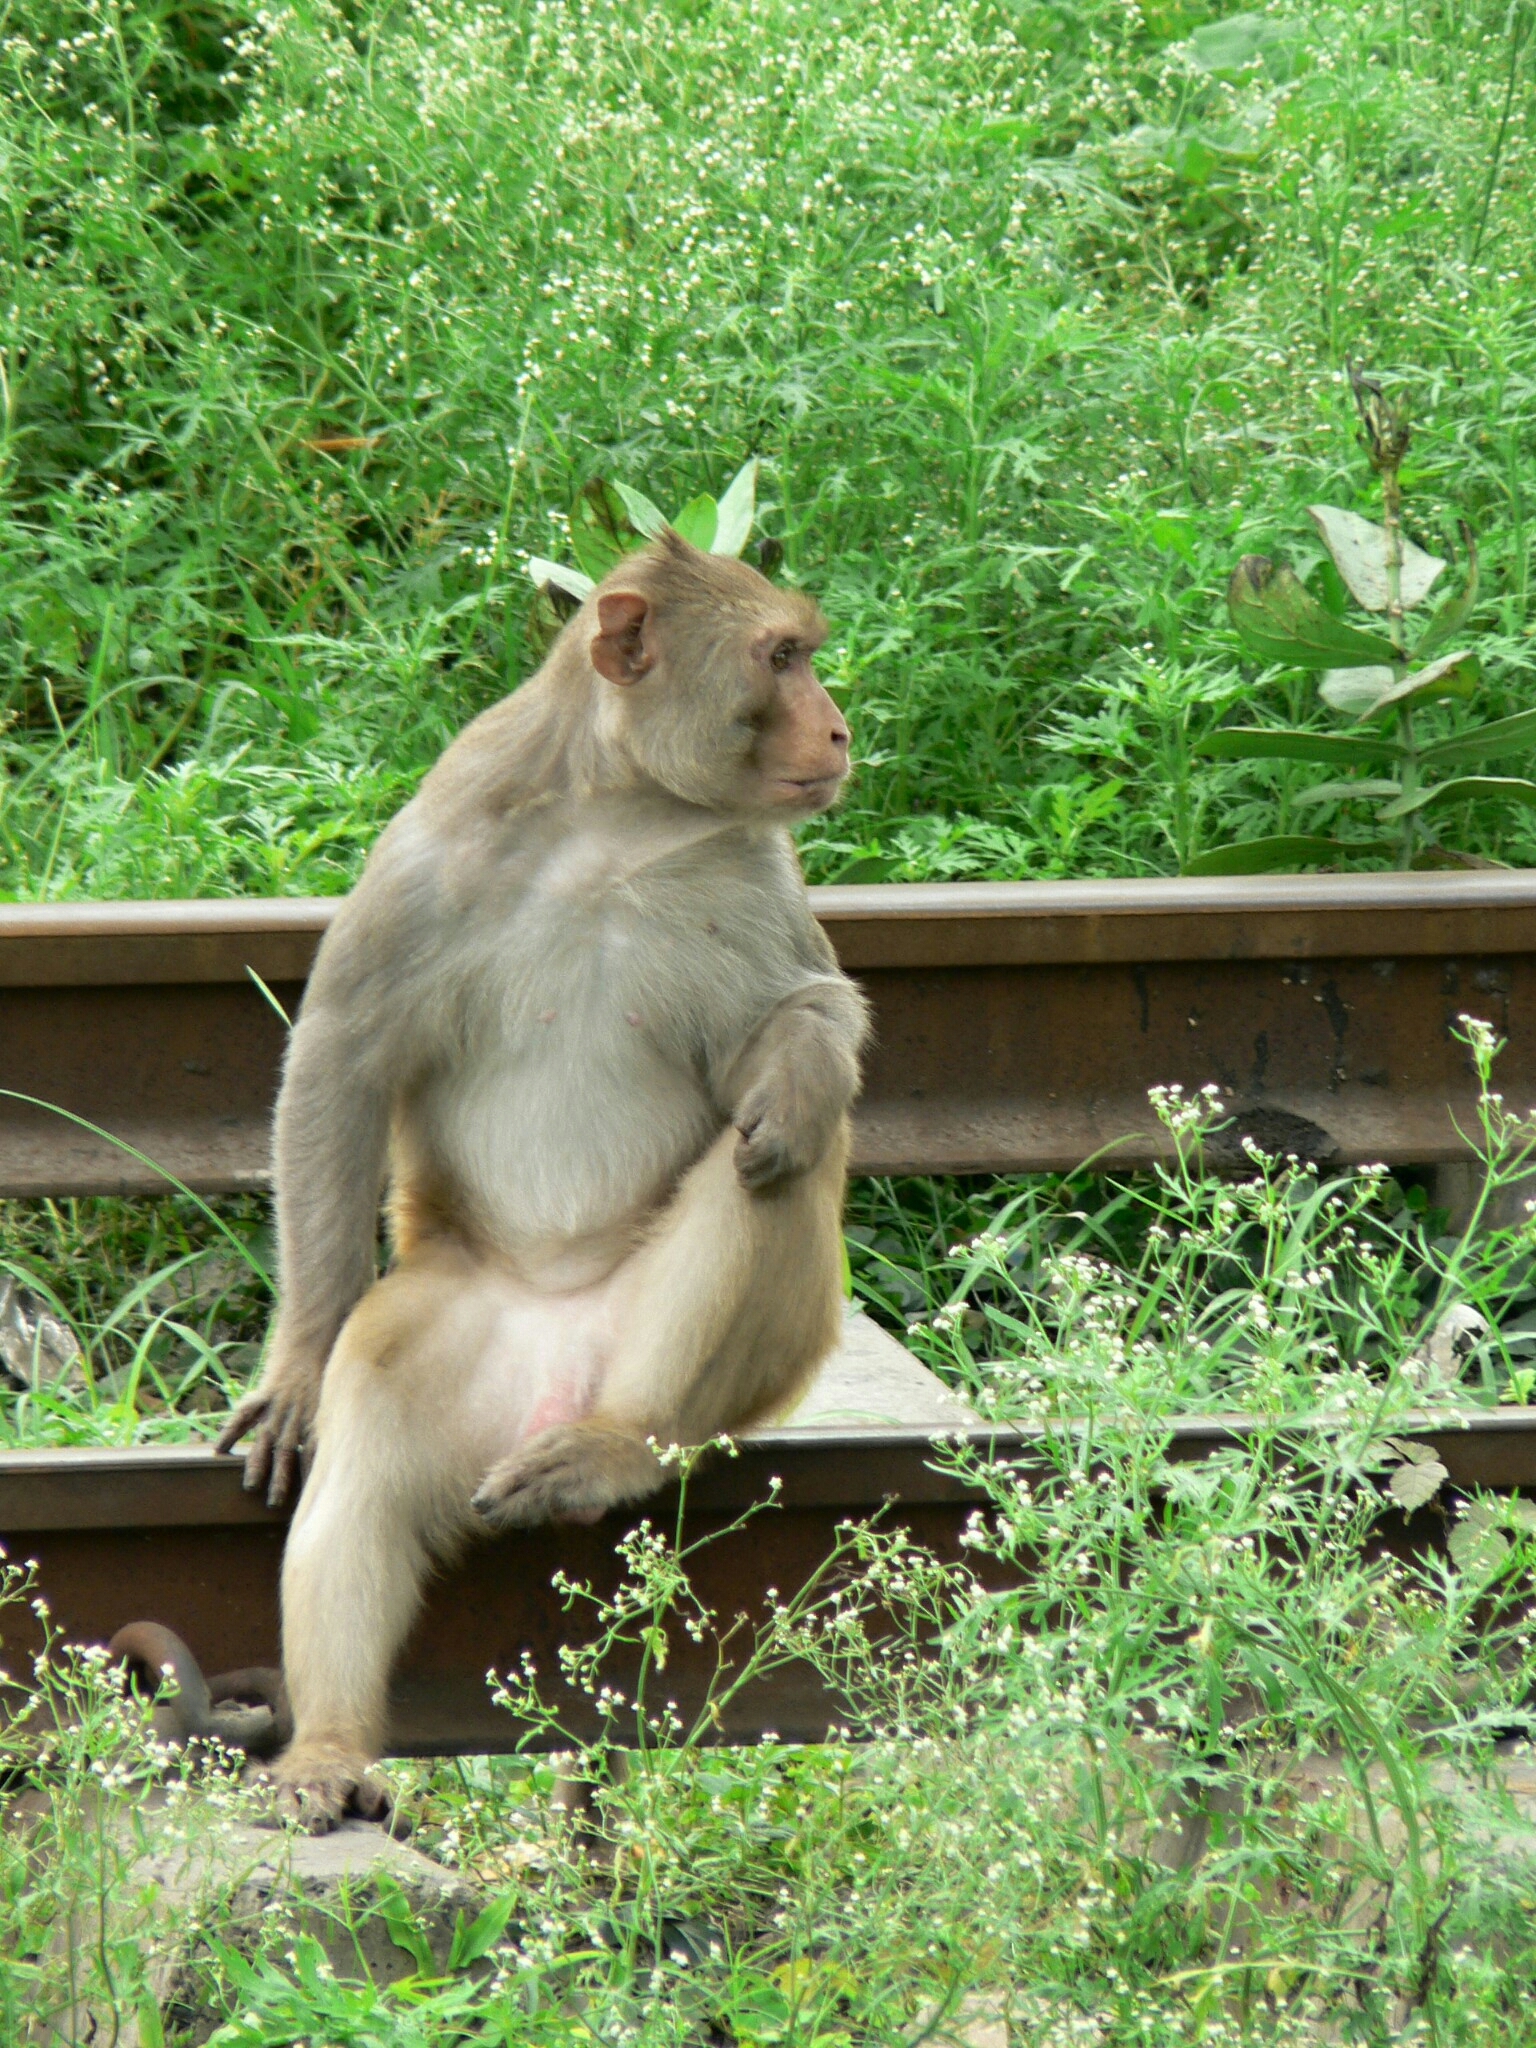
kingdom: Animalia
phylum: Chordata
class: Mammalia
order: Primates
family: Cercopithecidae
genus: Macaca
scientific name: Macaca mulatta
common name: Rhesus monkey
